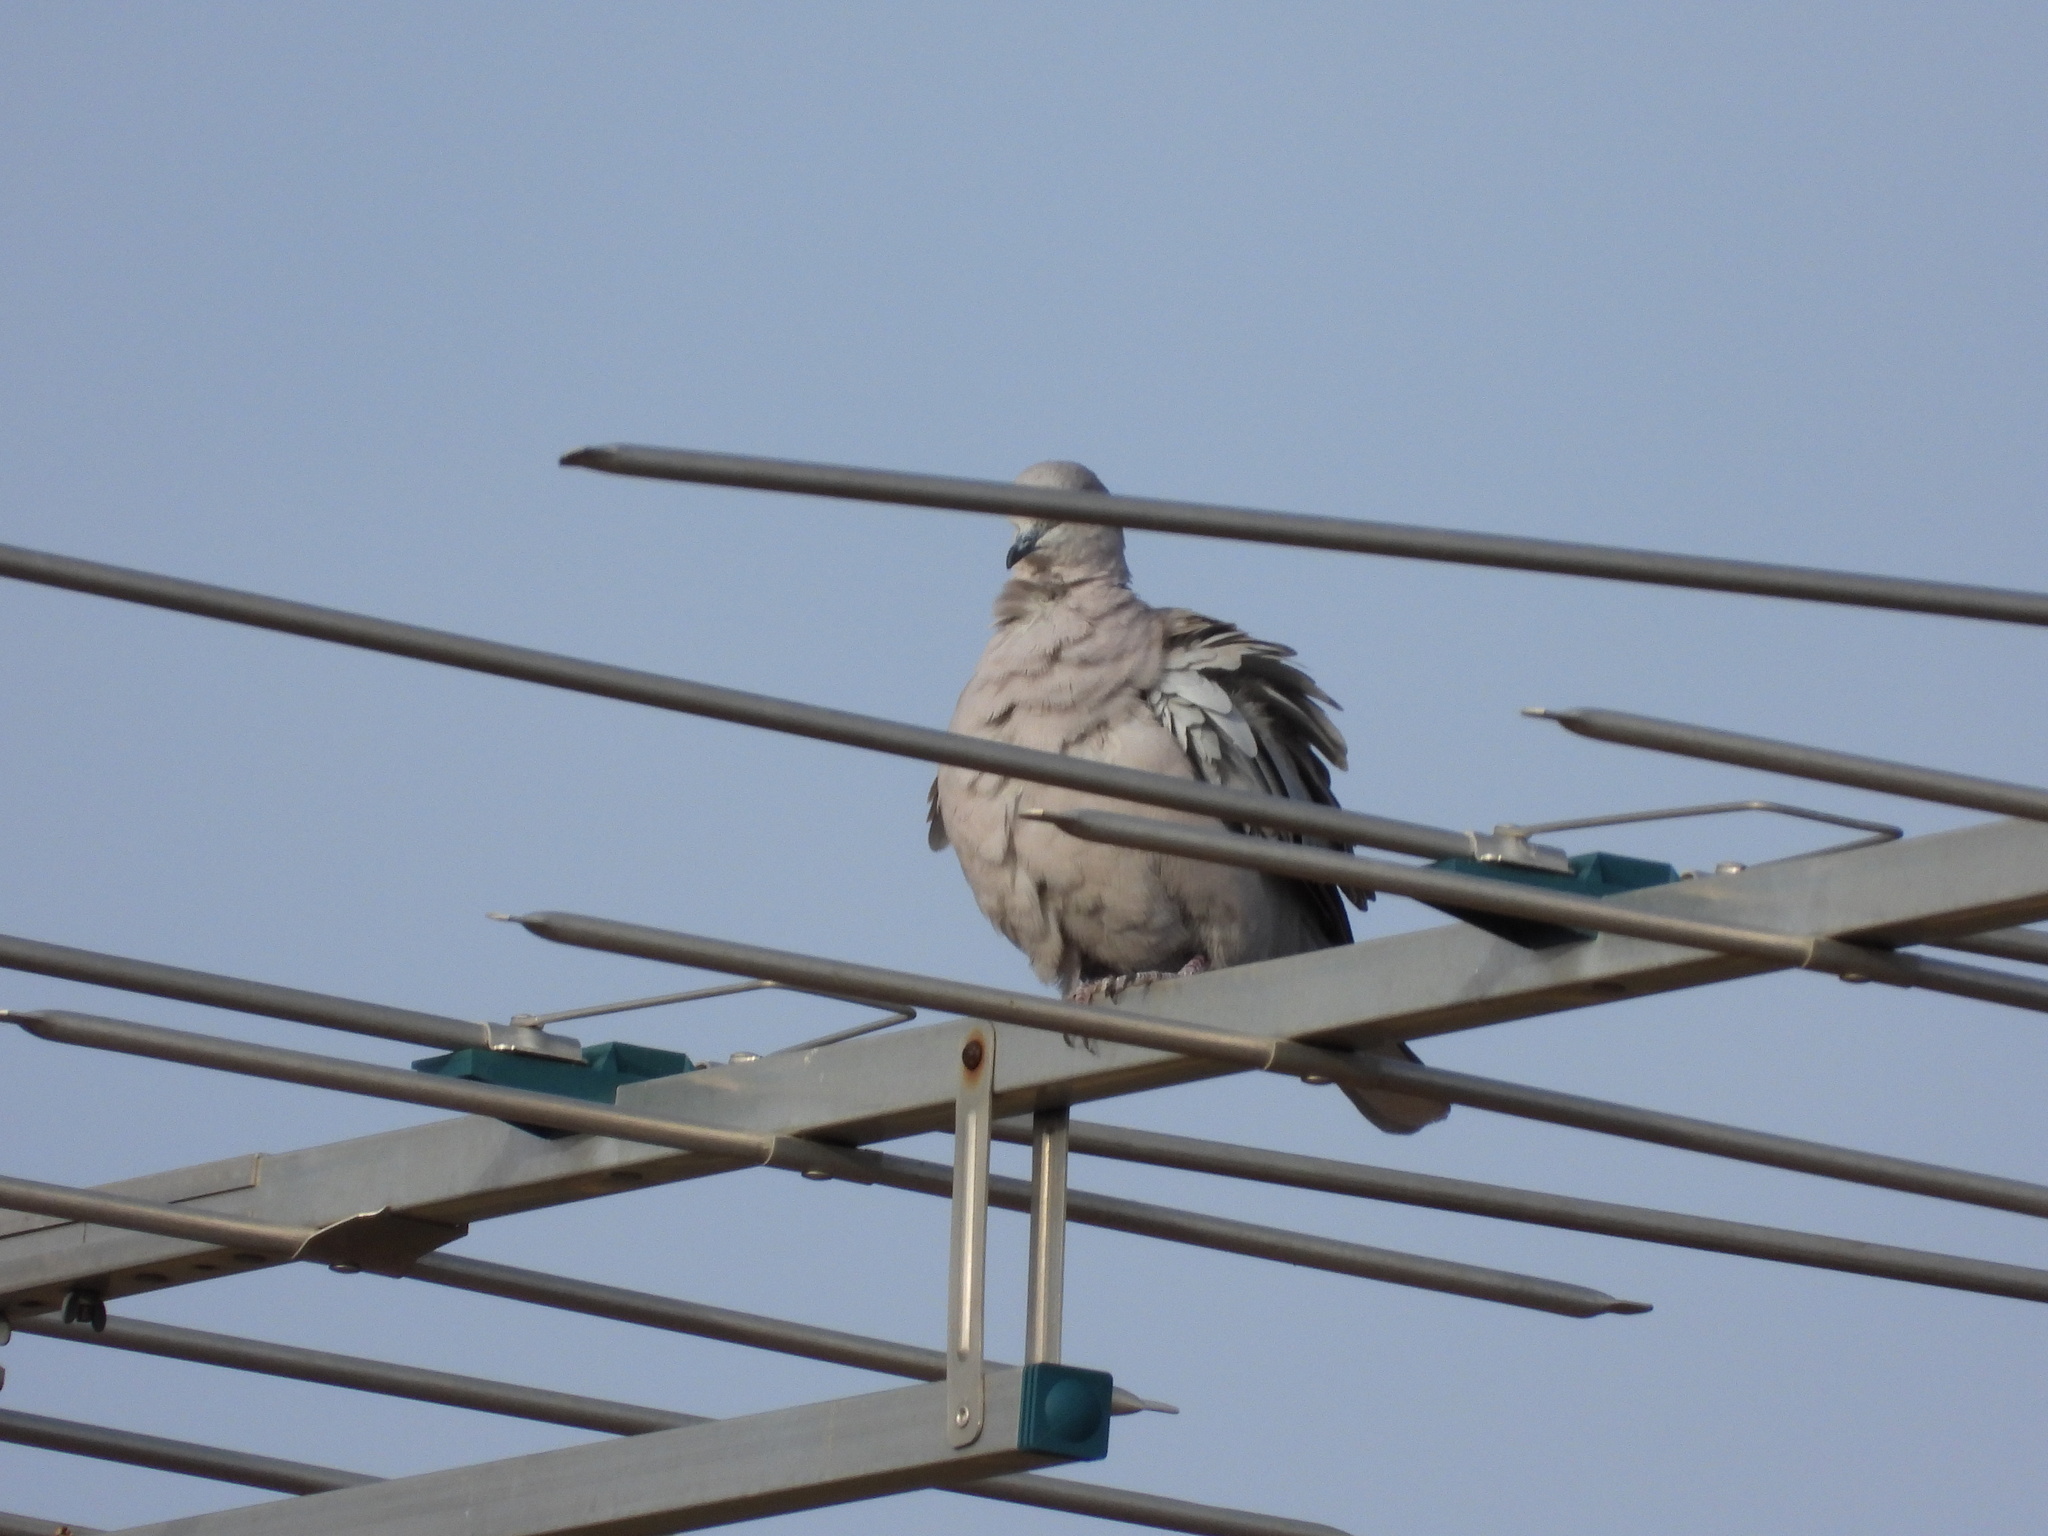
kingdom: Animalia
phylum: Chordata
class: Aves
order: Columbiformes
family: Columbidae
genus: Streptopelia
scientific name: Streptopelia decaocto
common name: Eurasian collared dove
